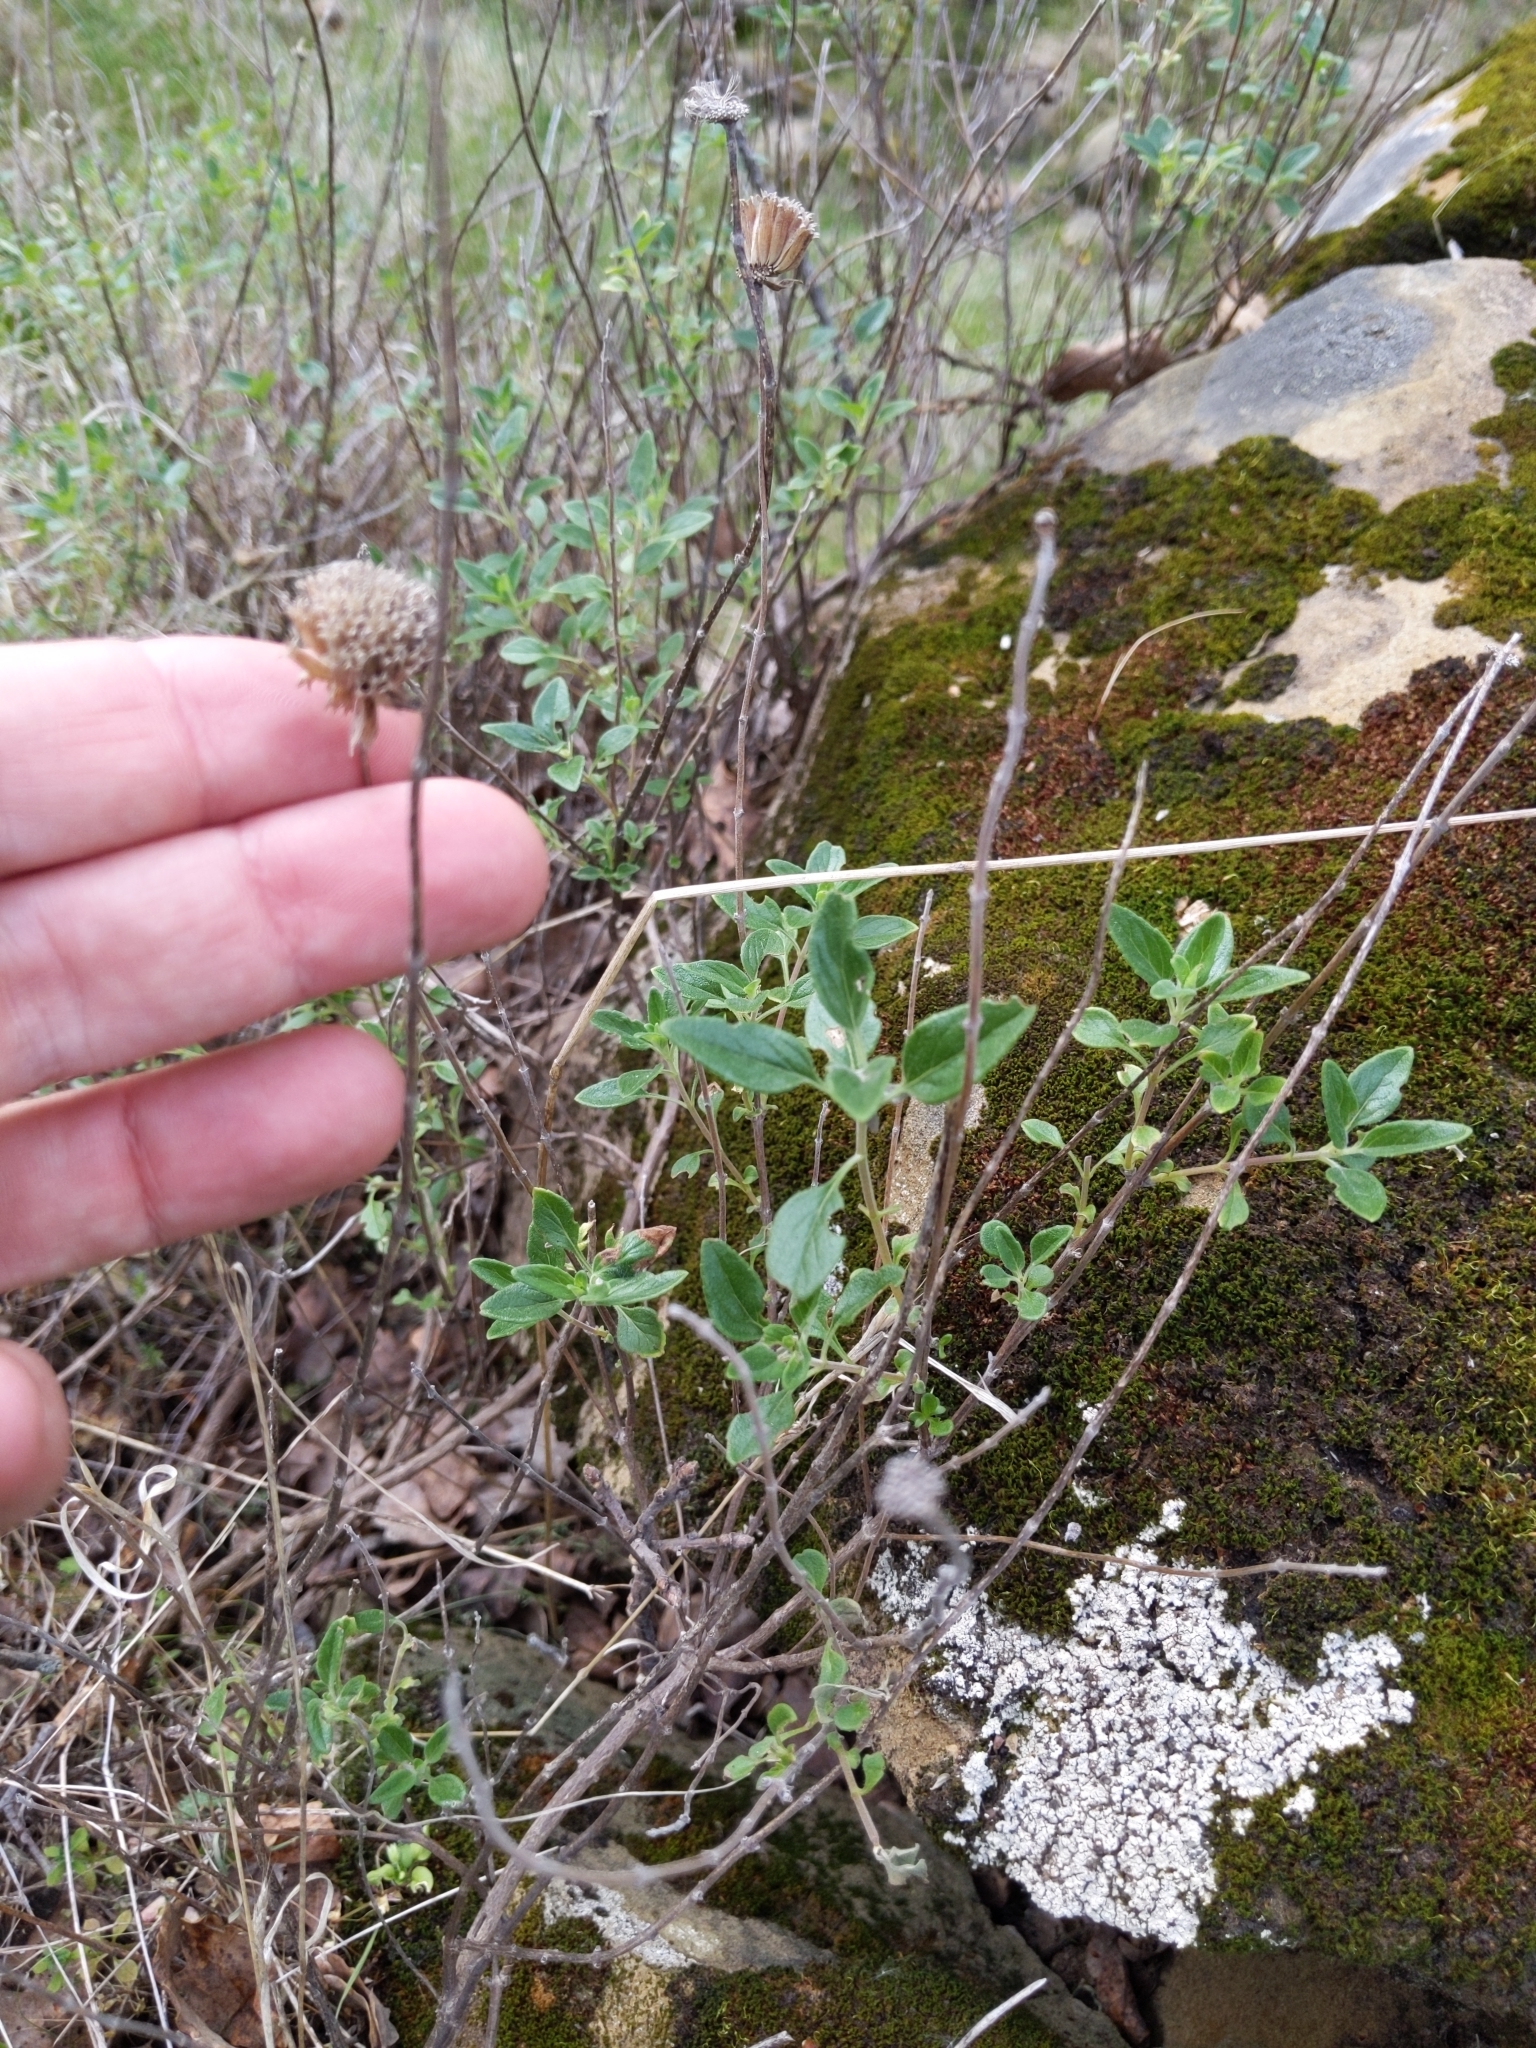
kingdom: Plantae
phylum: Tracheophyta
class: Magnoliopsida
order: Lamiales
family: Lamiaceae
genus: Monardella
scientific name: Monardella odoratissima
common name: Pacific monardella
